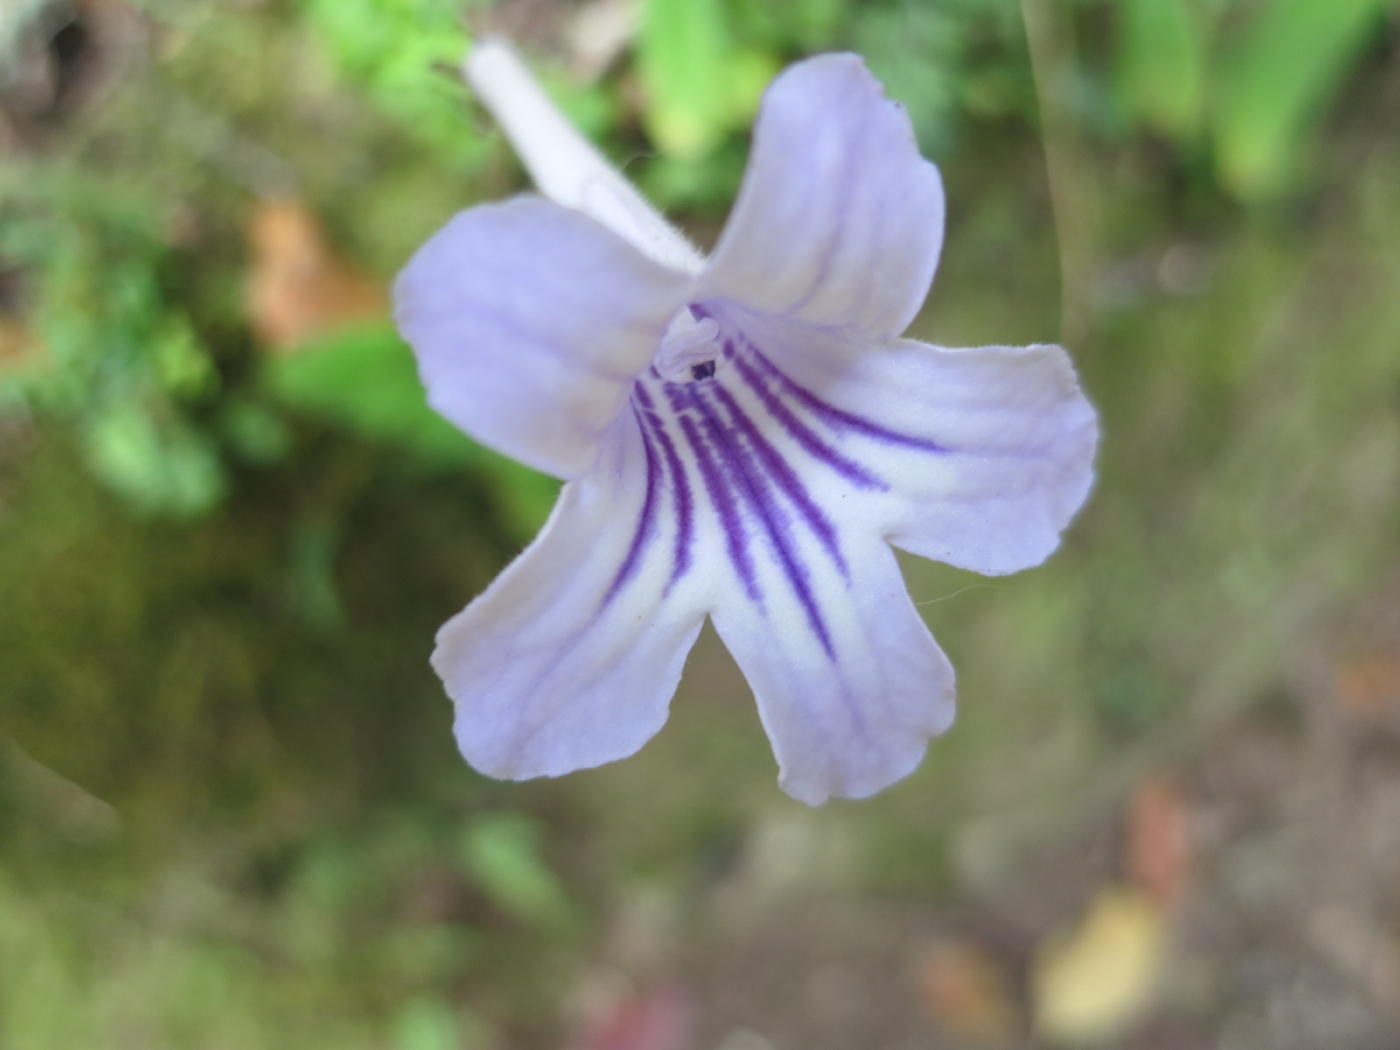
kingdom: Plantae
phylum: Tracheophyta
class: Magnoliopsida
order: Lamiales
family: Gesneriaceae
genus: Streptocarpus
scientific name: Streptocarpus rexii
